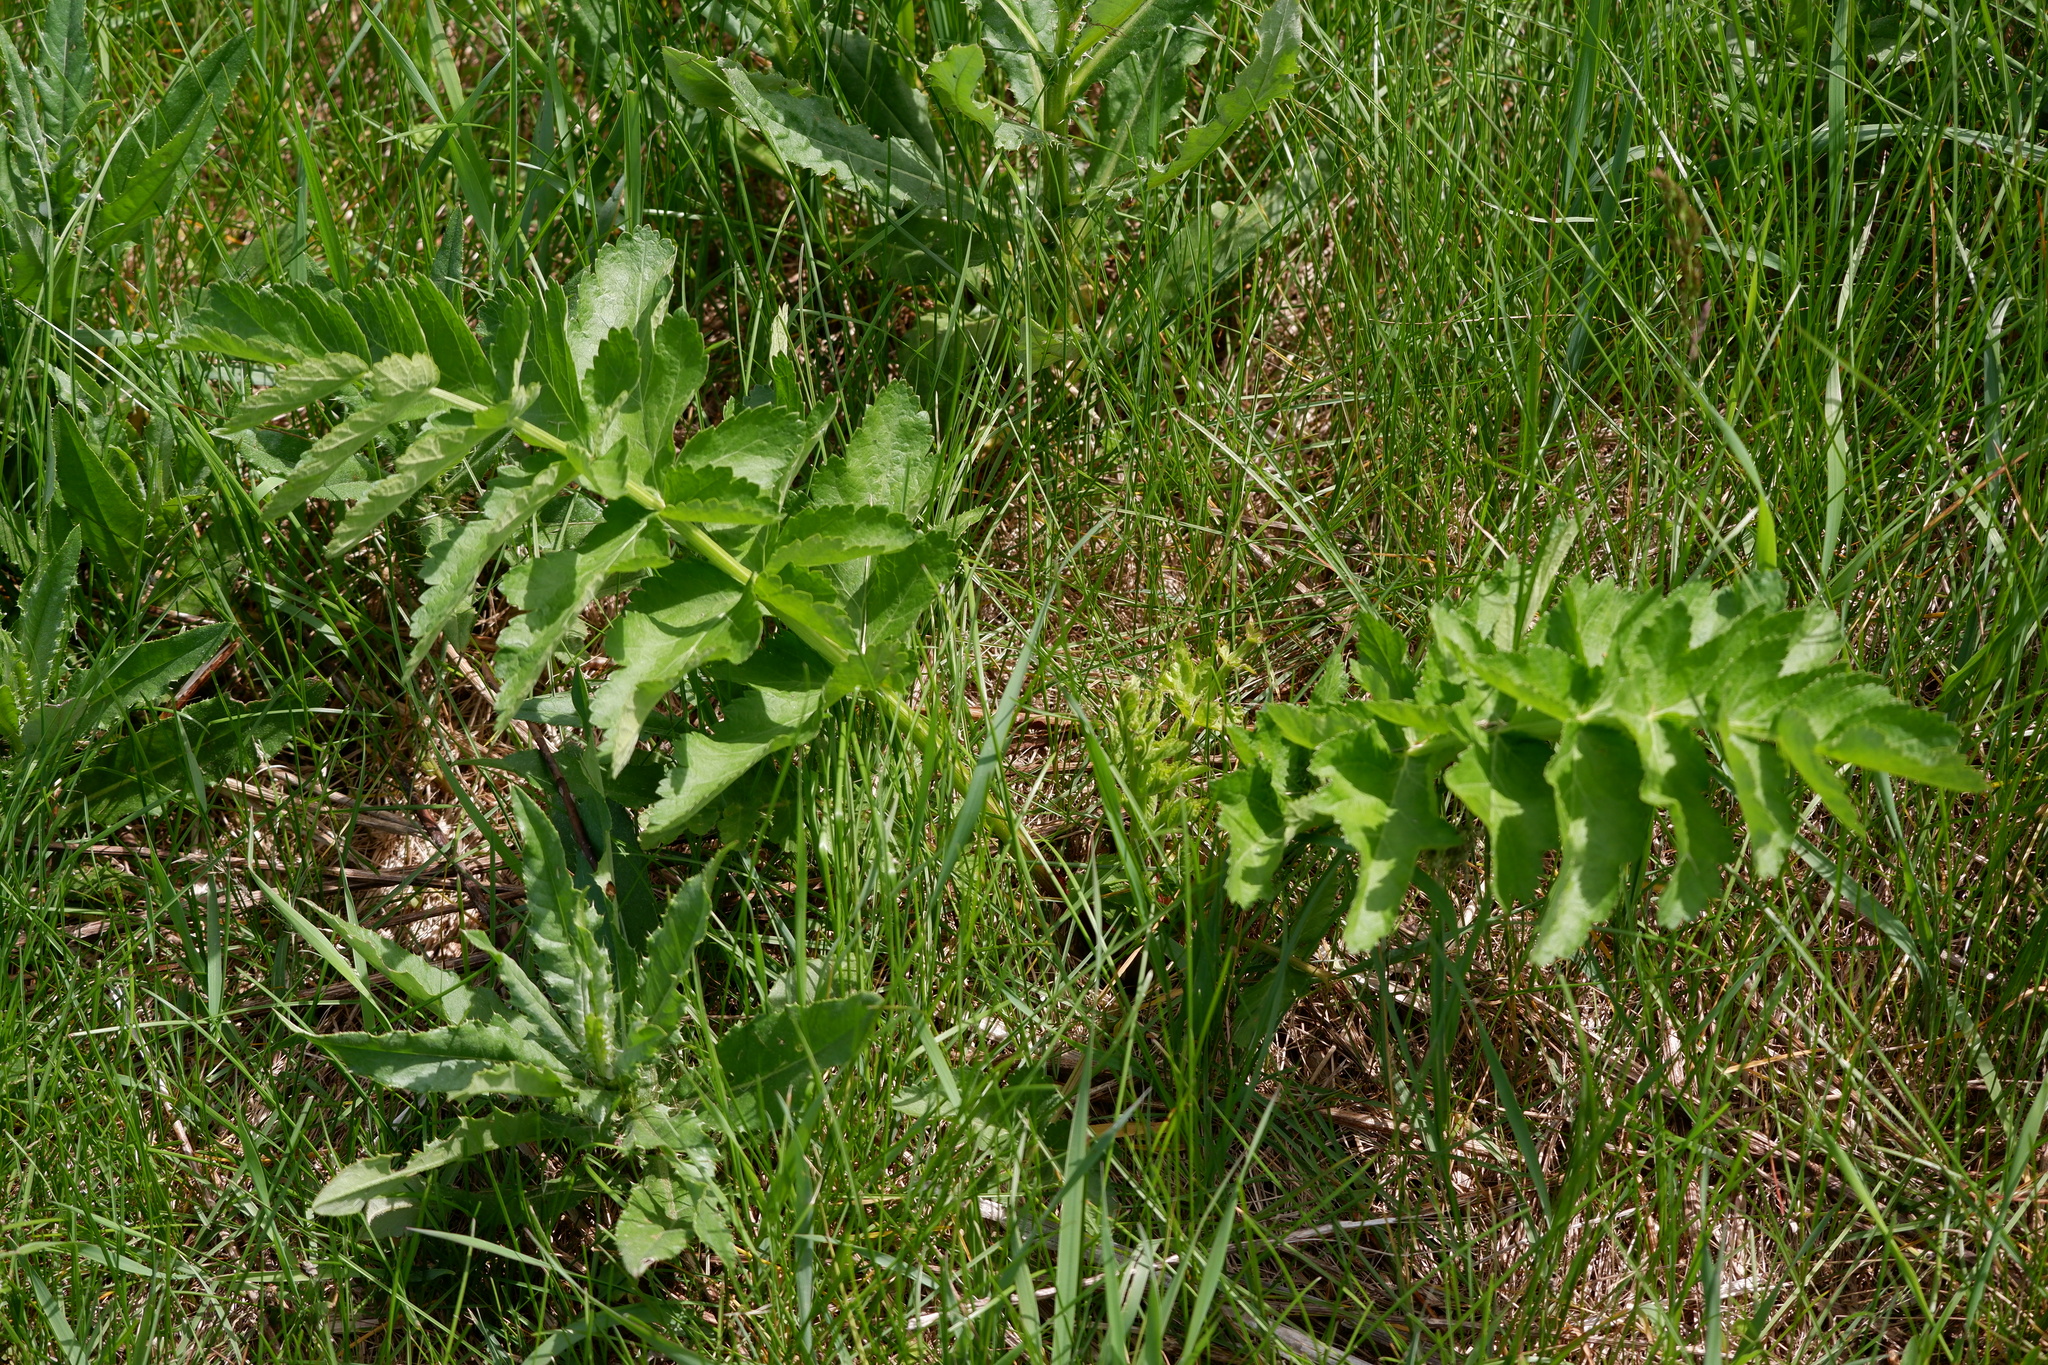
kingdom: Plantae
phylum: Tracheophyta
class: Magnoliopsida
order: Apiales
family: Apiaceae
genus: Pastinaca
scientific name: Pastinaca sativa
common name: Wild parsnip
